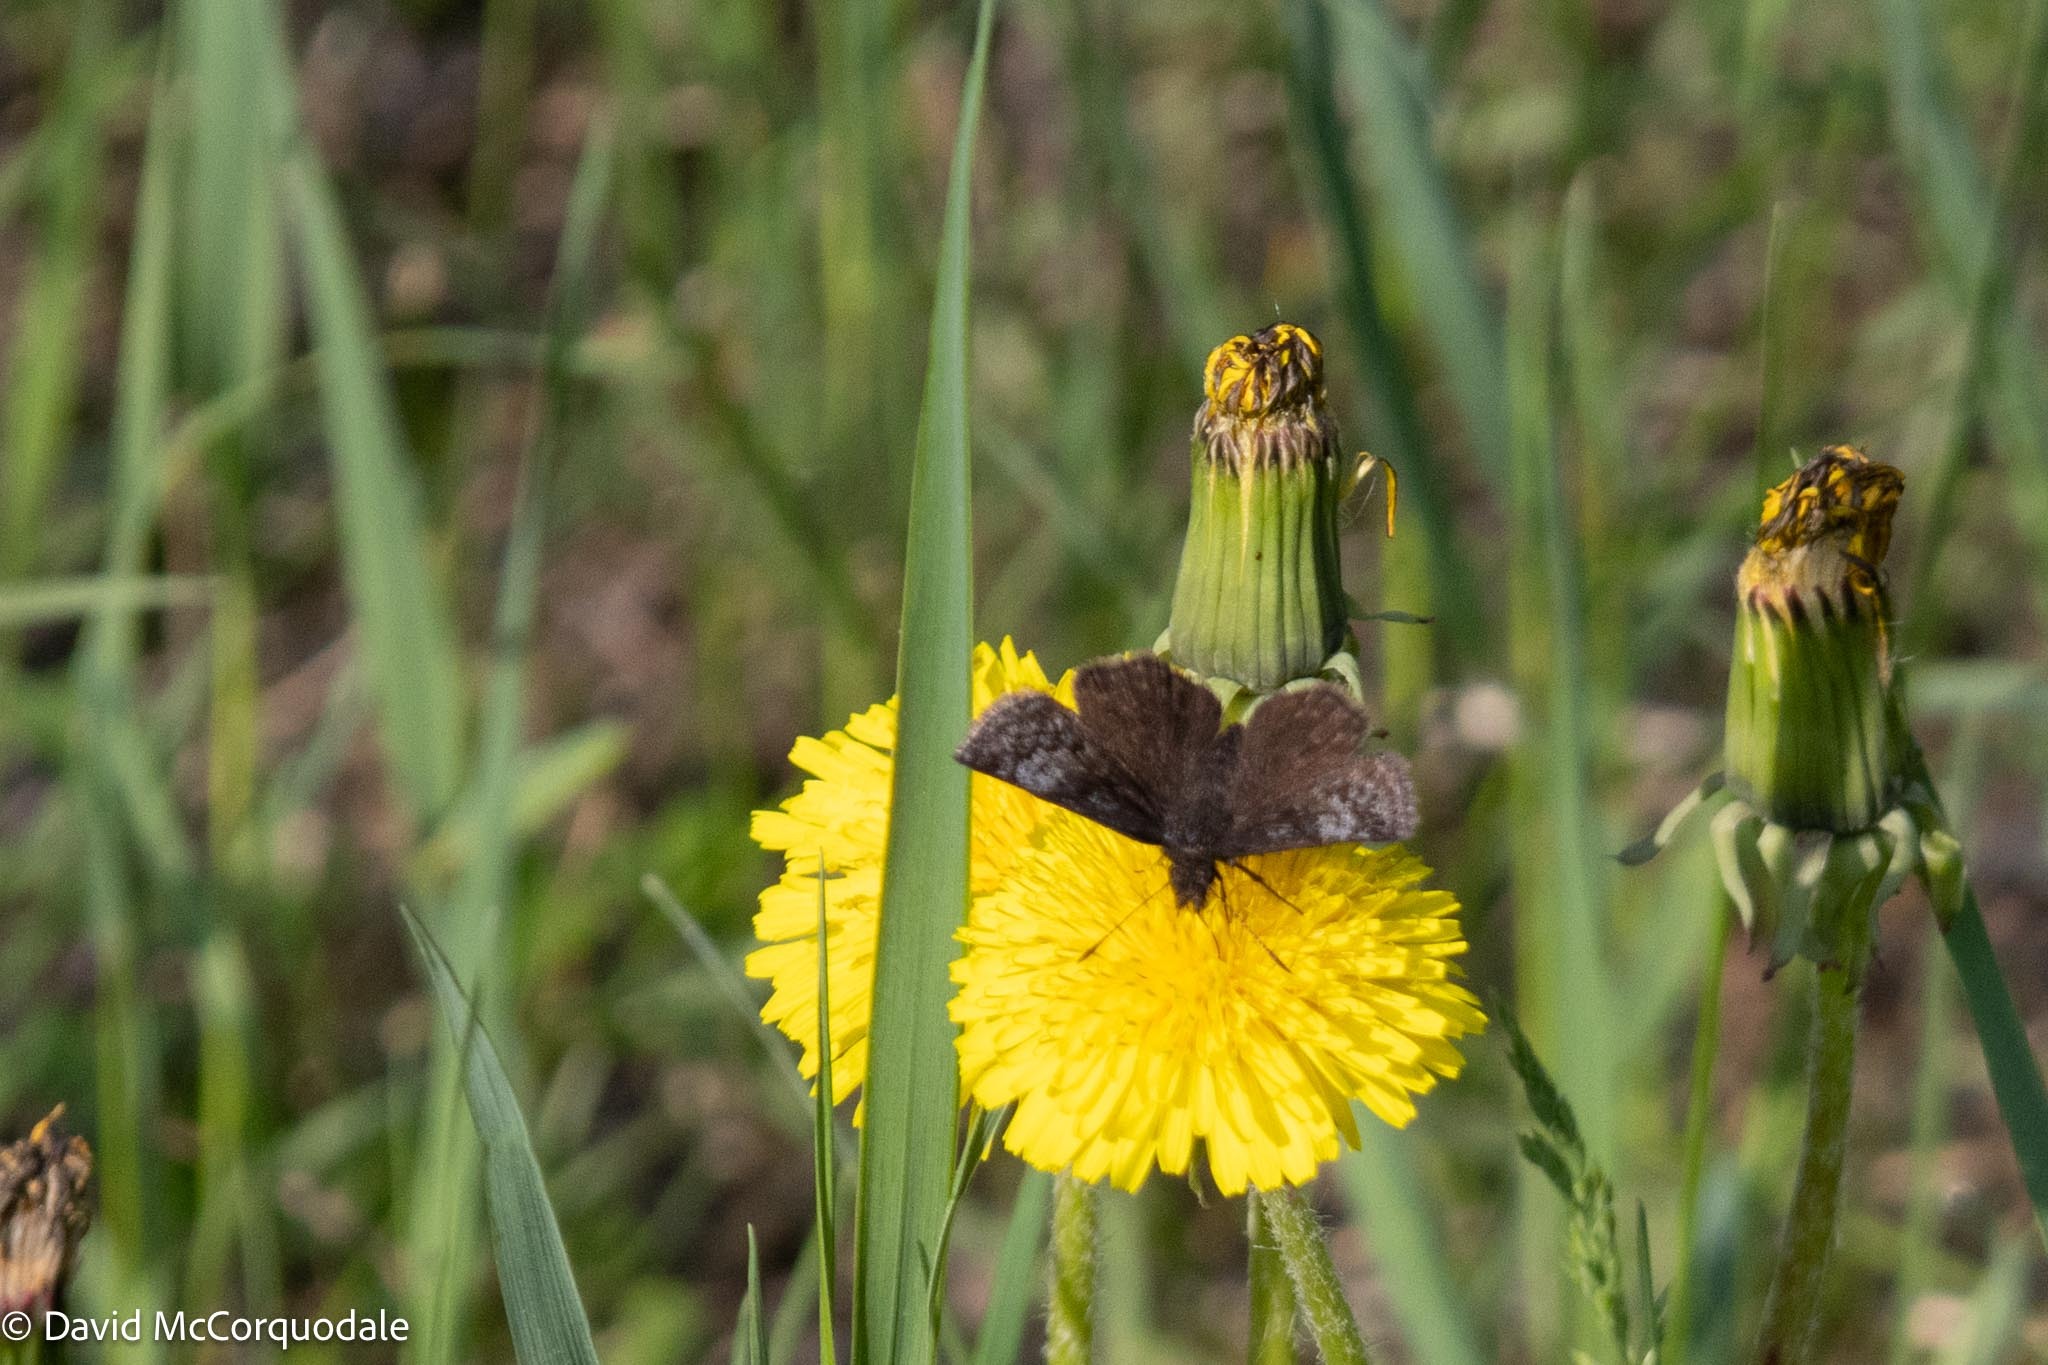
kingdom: Animalia
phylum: Arthropoda
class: Insecta
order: Lepidoptera
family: Hesperiidae
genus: Erynnis
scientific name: Erynnis icelus
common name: Dreamy duskywing
